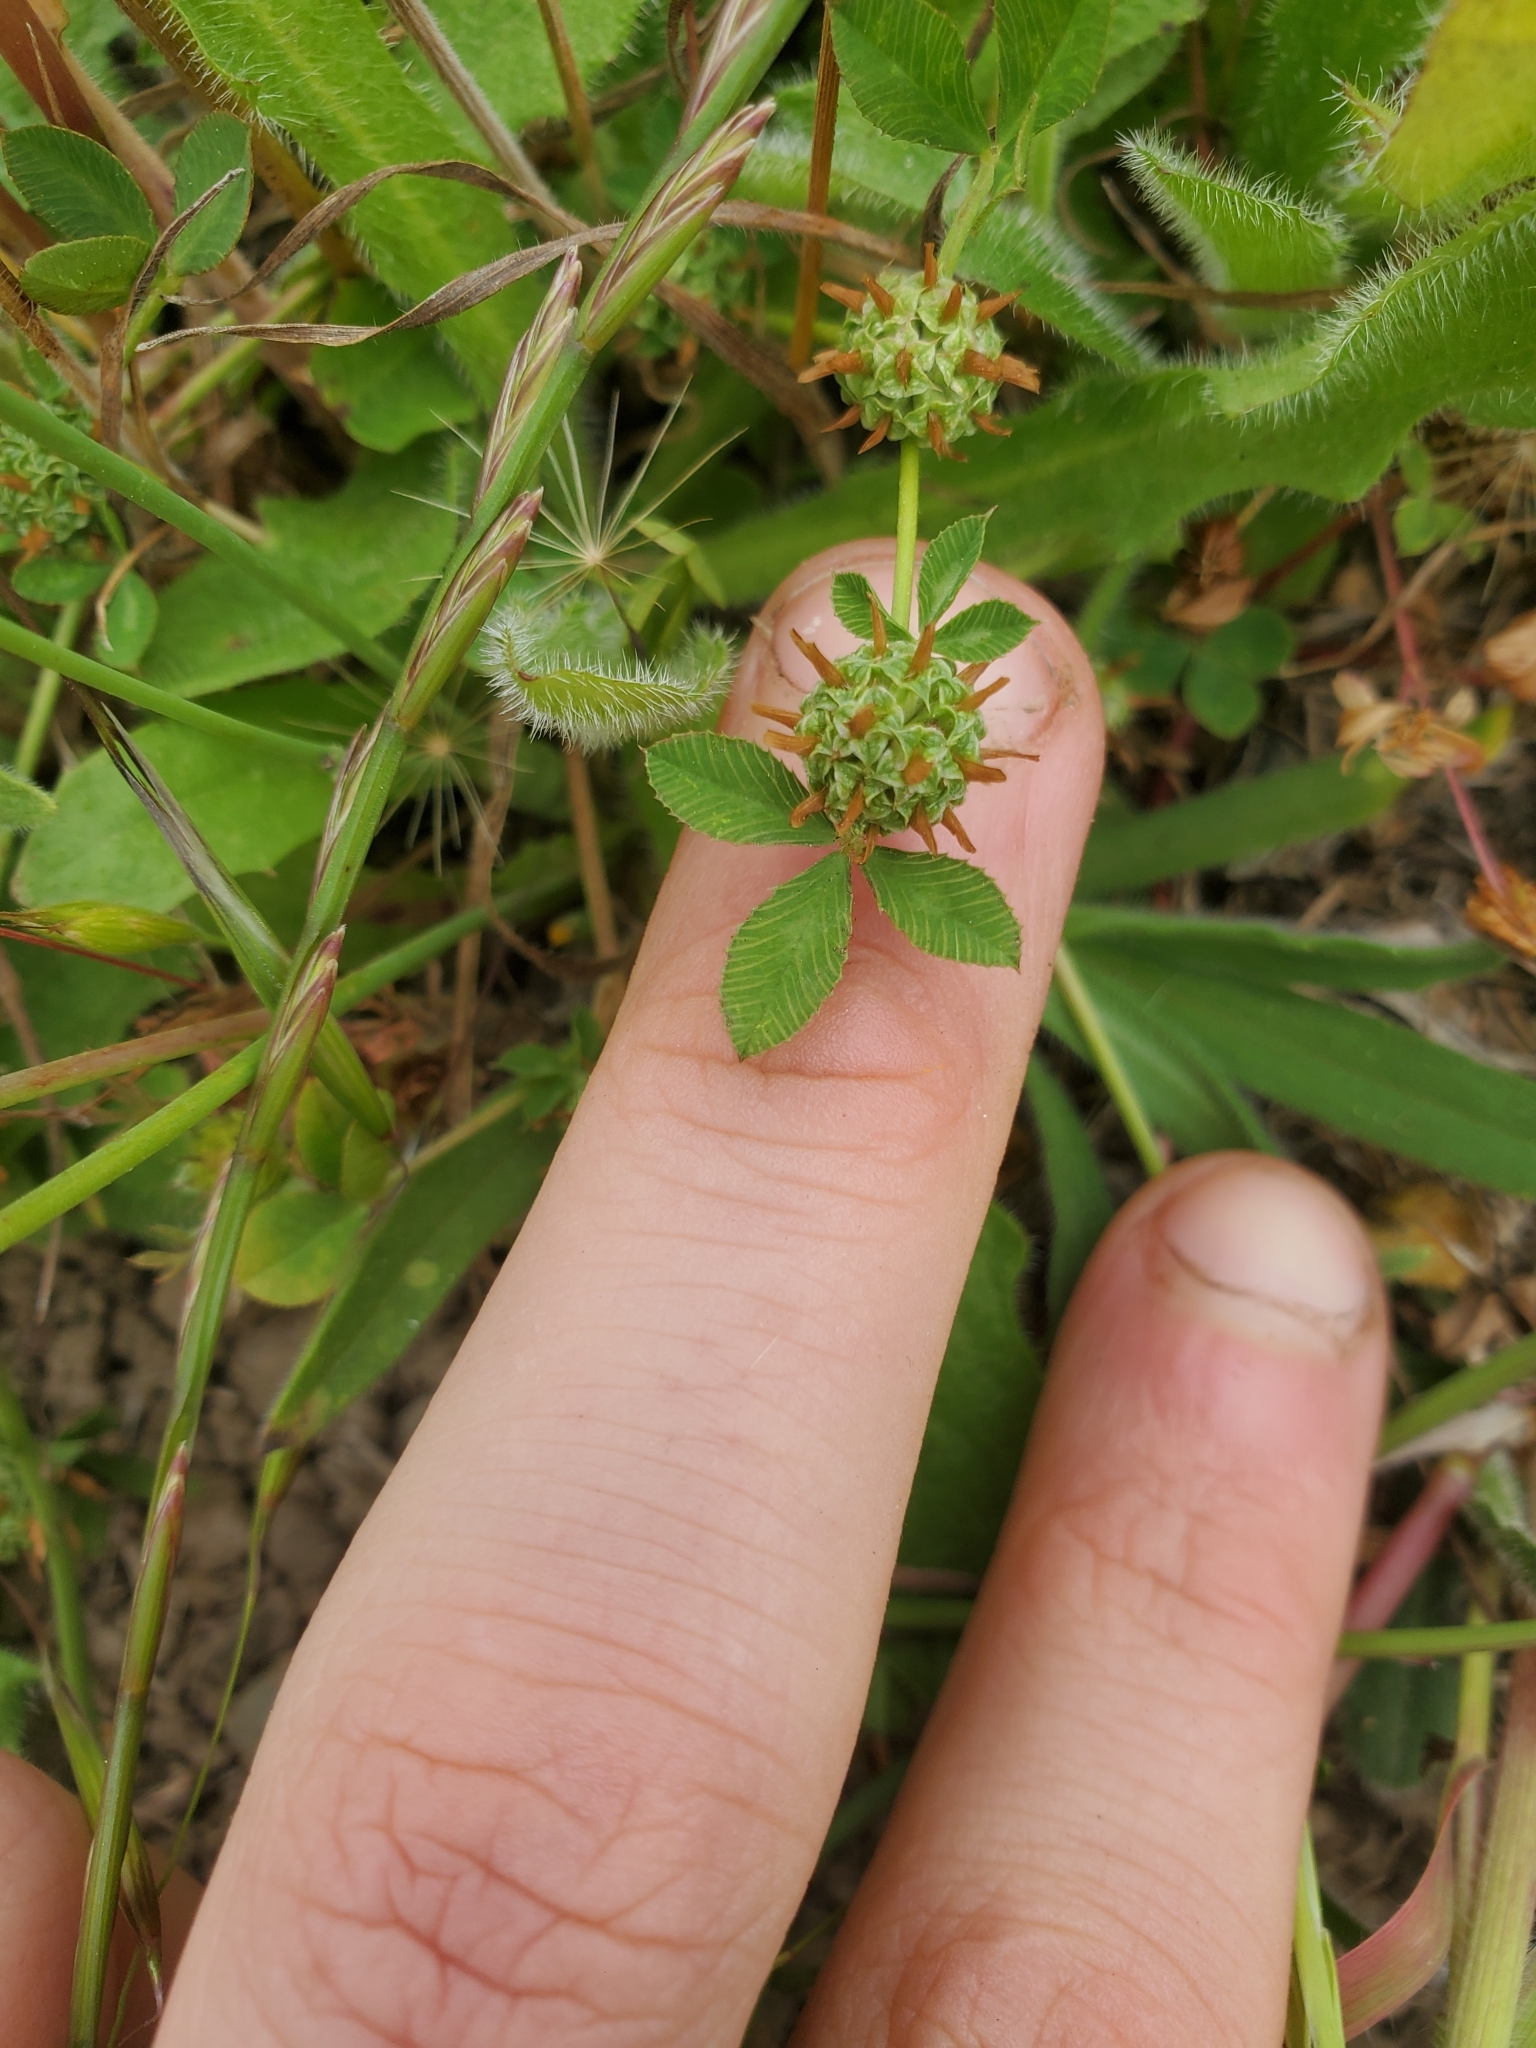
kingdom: Plantae
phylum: Tracheophyta
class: Magnoliopsida
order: Fabales
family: Fabaceae
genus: Trifolium
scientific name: Trifolium glomeratum
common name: Clustered clover
